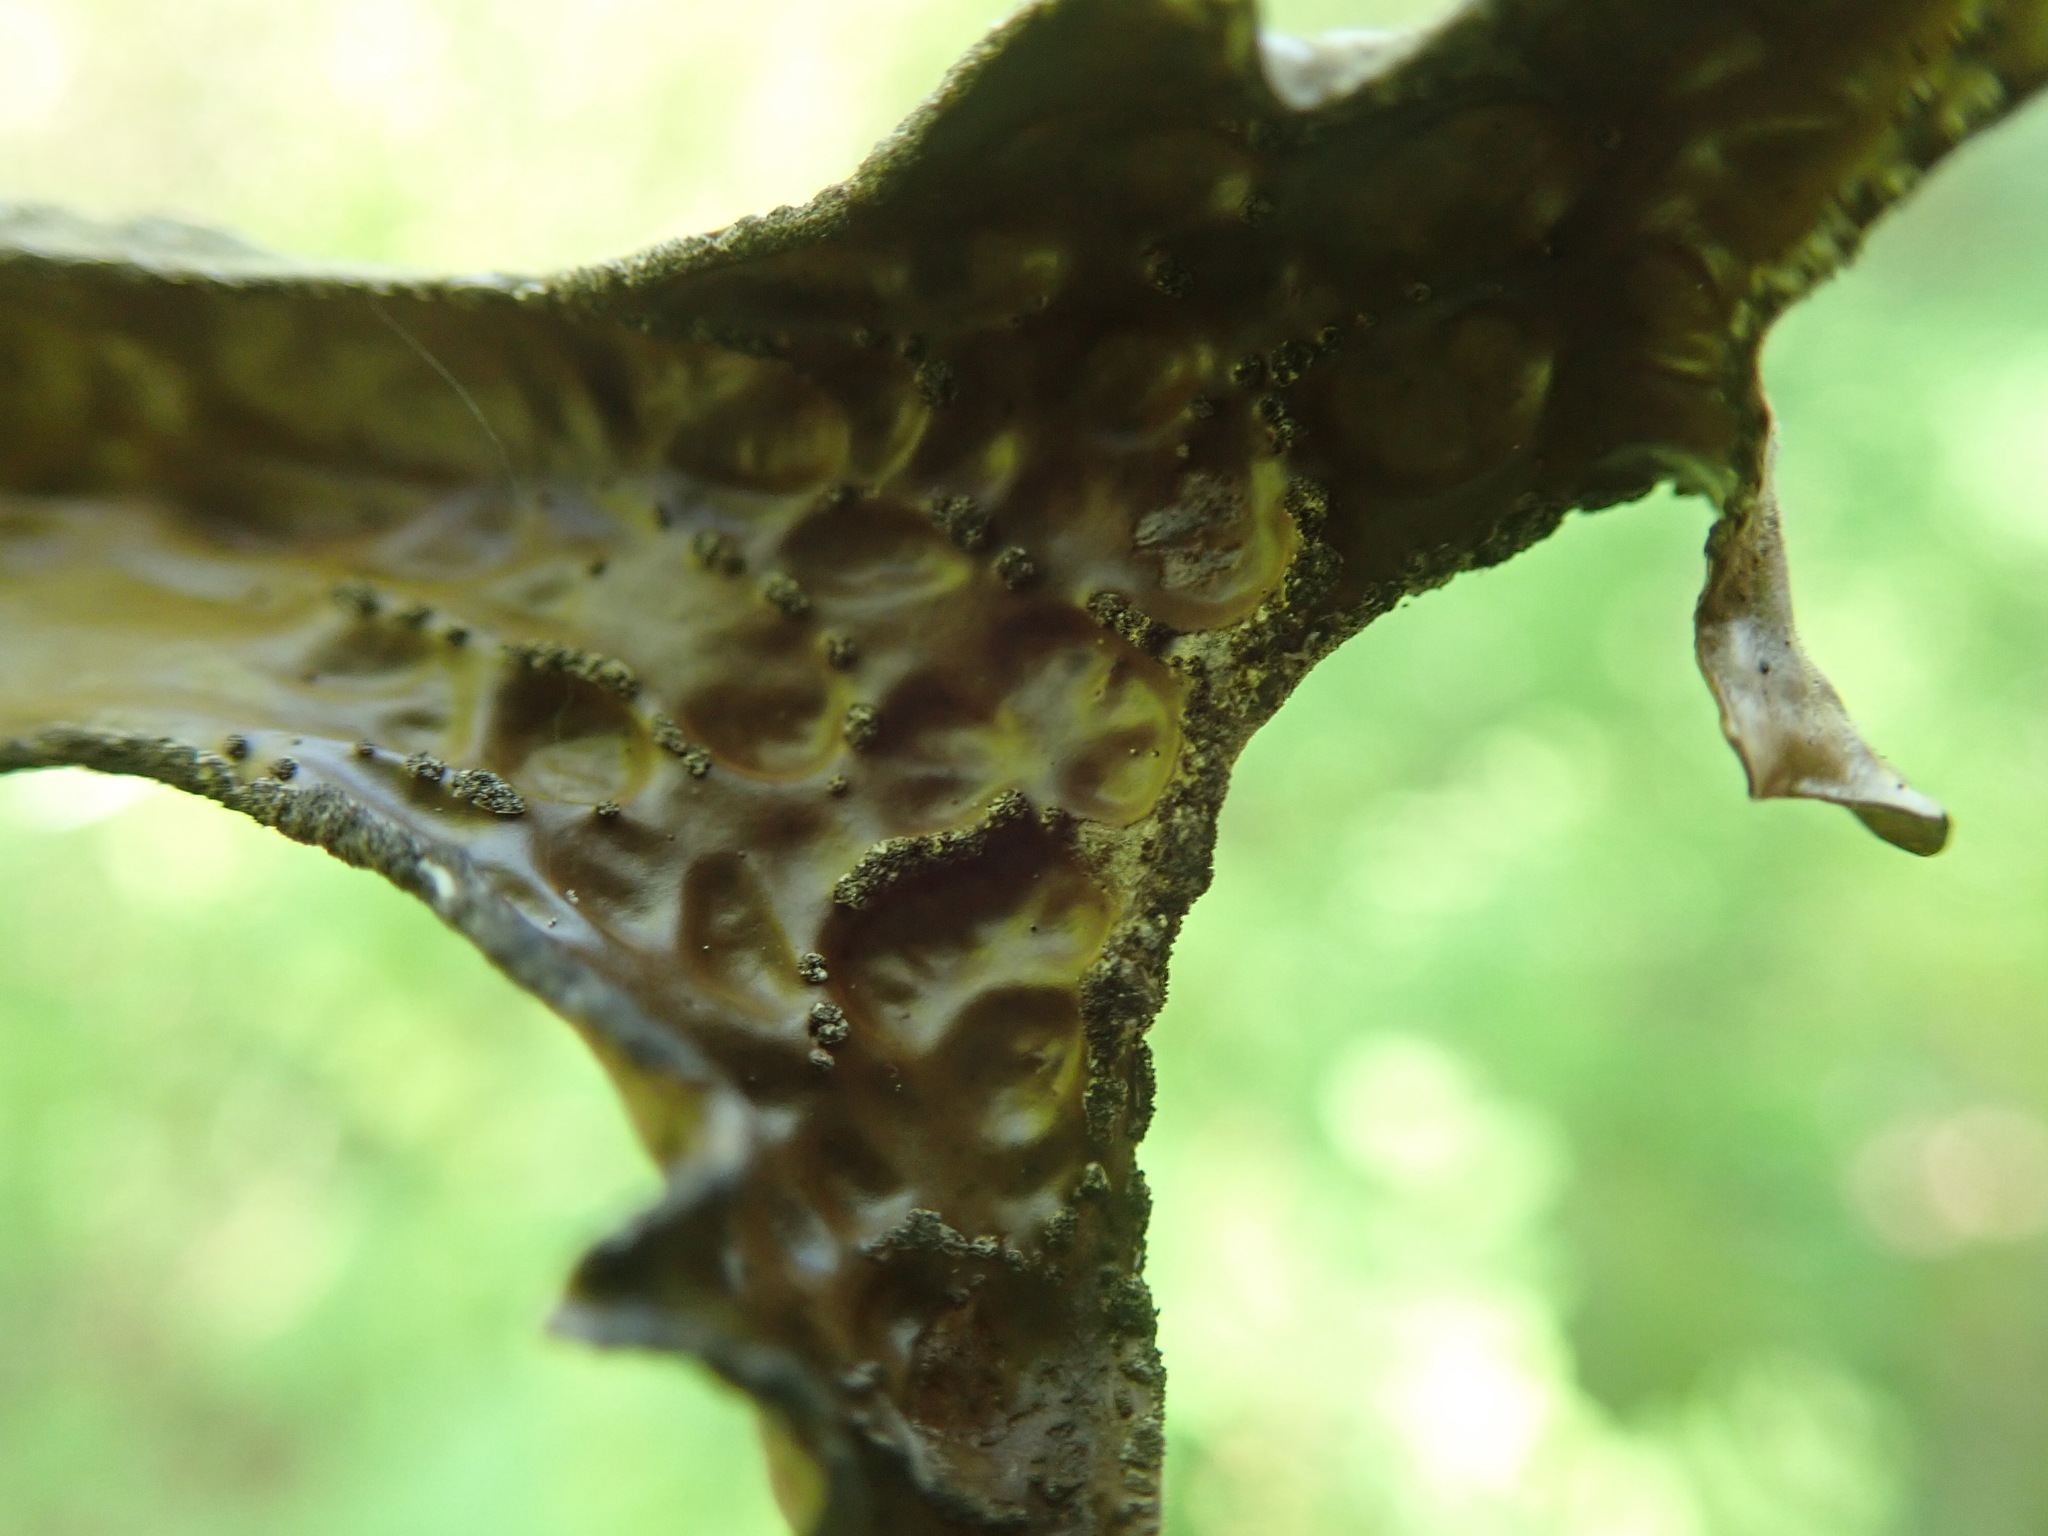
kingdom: Fungi
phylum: Ascomycota
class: Lecanoromycetes
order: Peltigerales
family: Lobariaceae
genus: Lobaria
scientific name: Lobaria pulmonaria
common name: Lungwort
